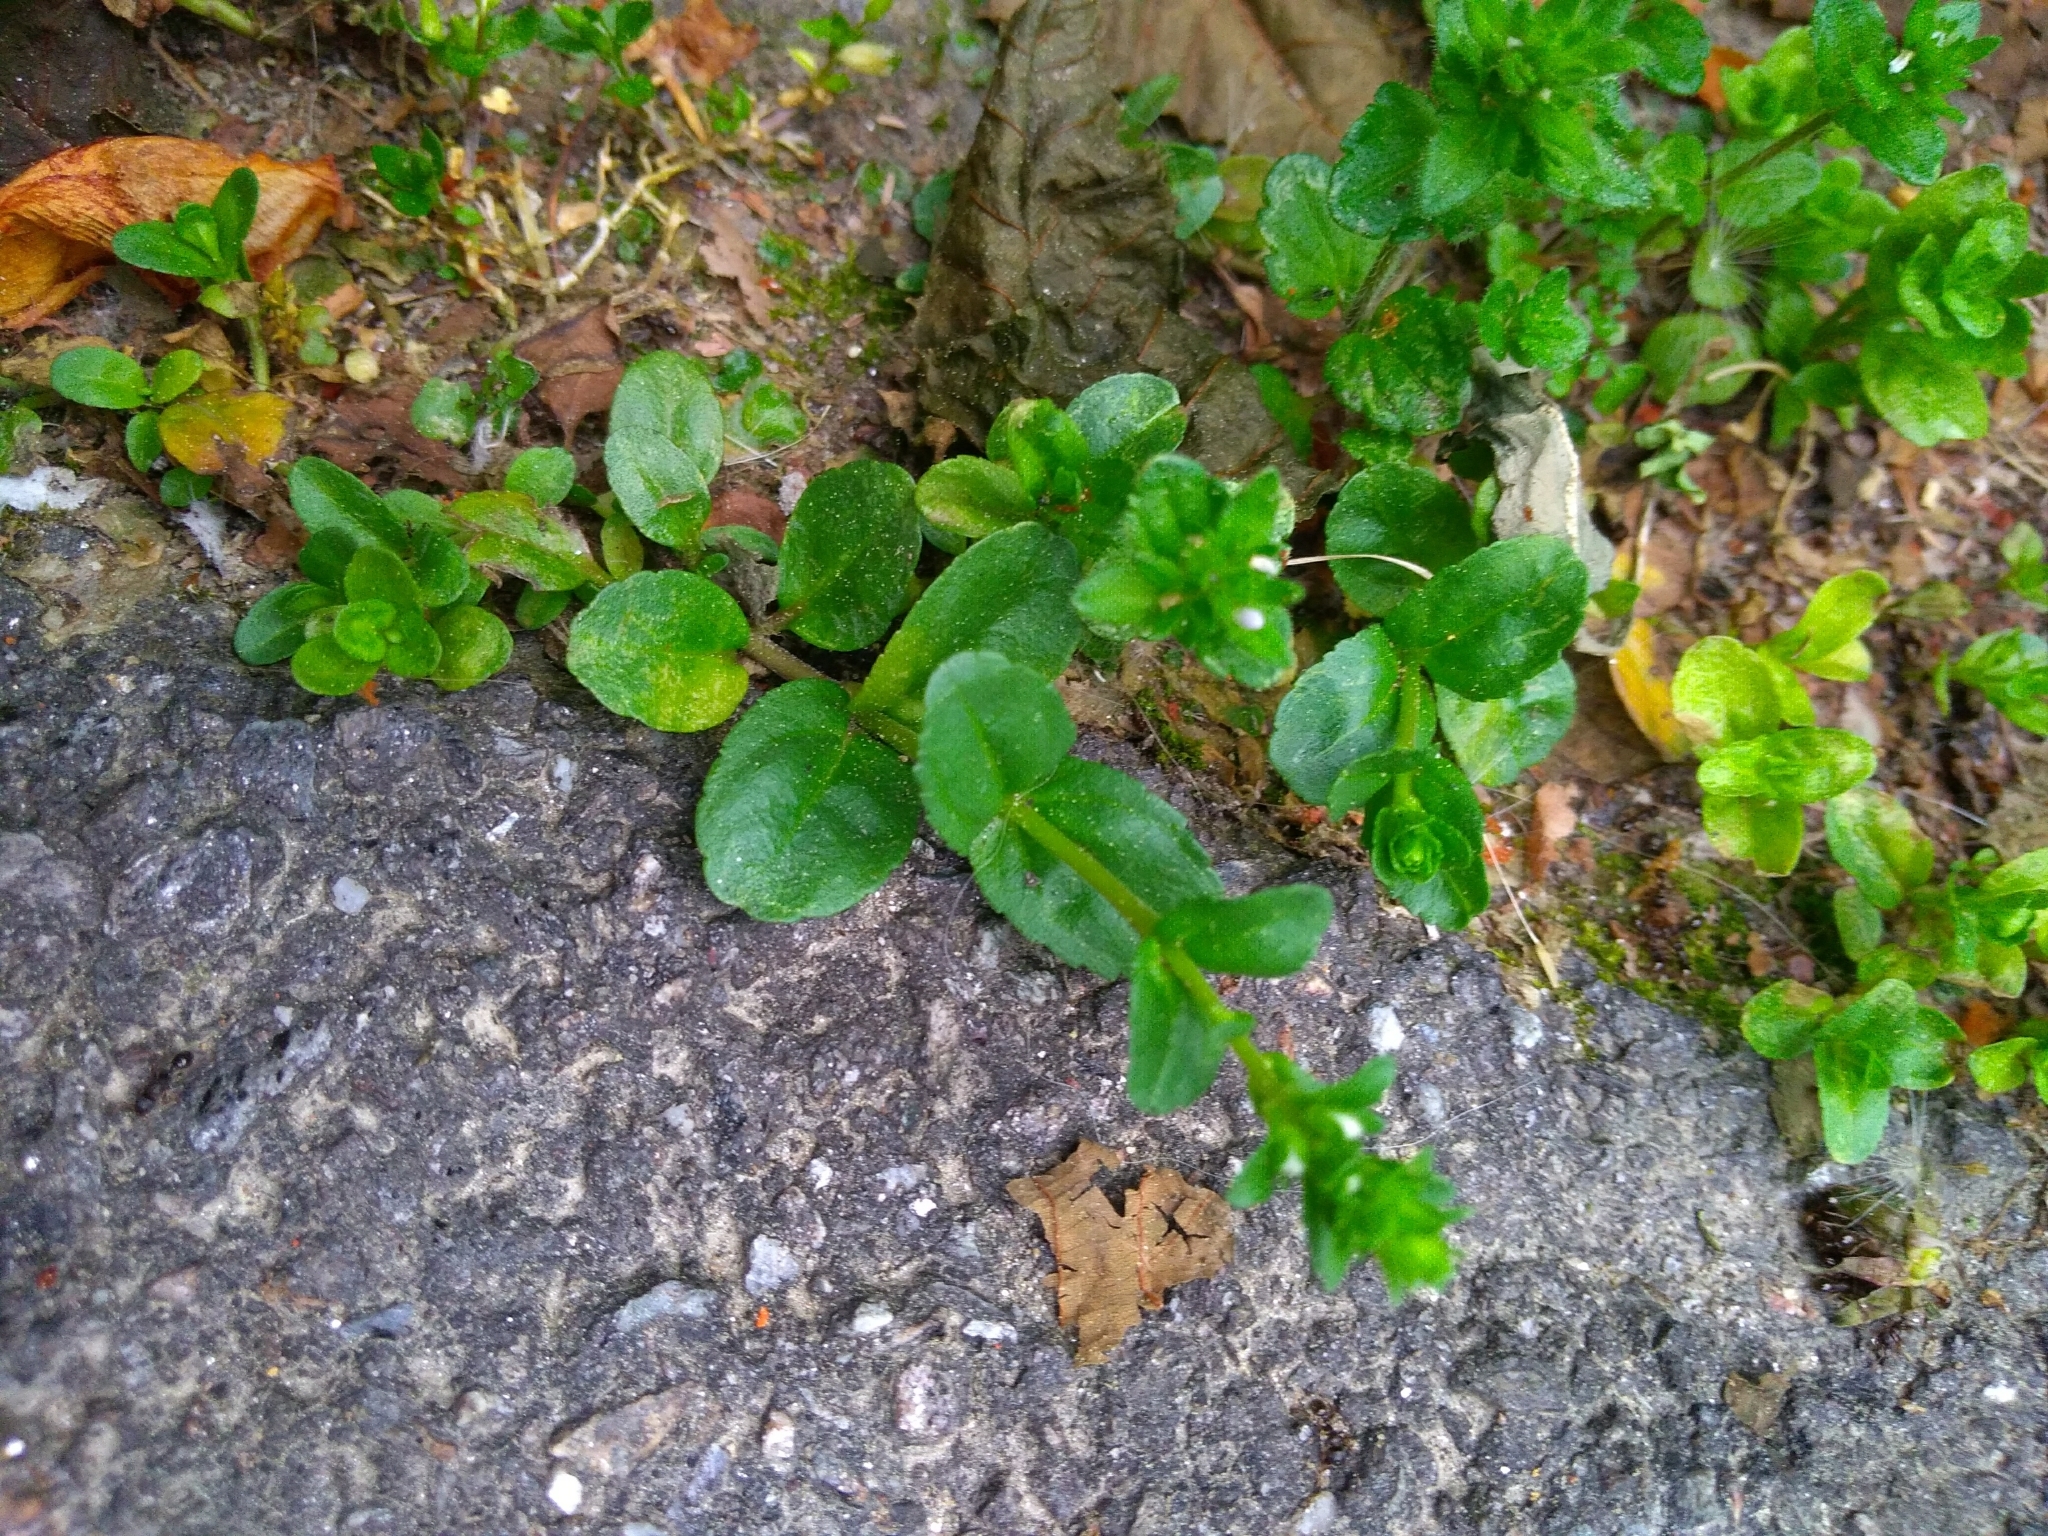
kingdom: Plantae
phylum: Tracheophyta
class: Magnoliopsida
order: Lamiales
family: Plantaginaceae
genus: Veronica
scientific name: Veronica serpyllifolia
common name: Thyme-leaved speedwell
